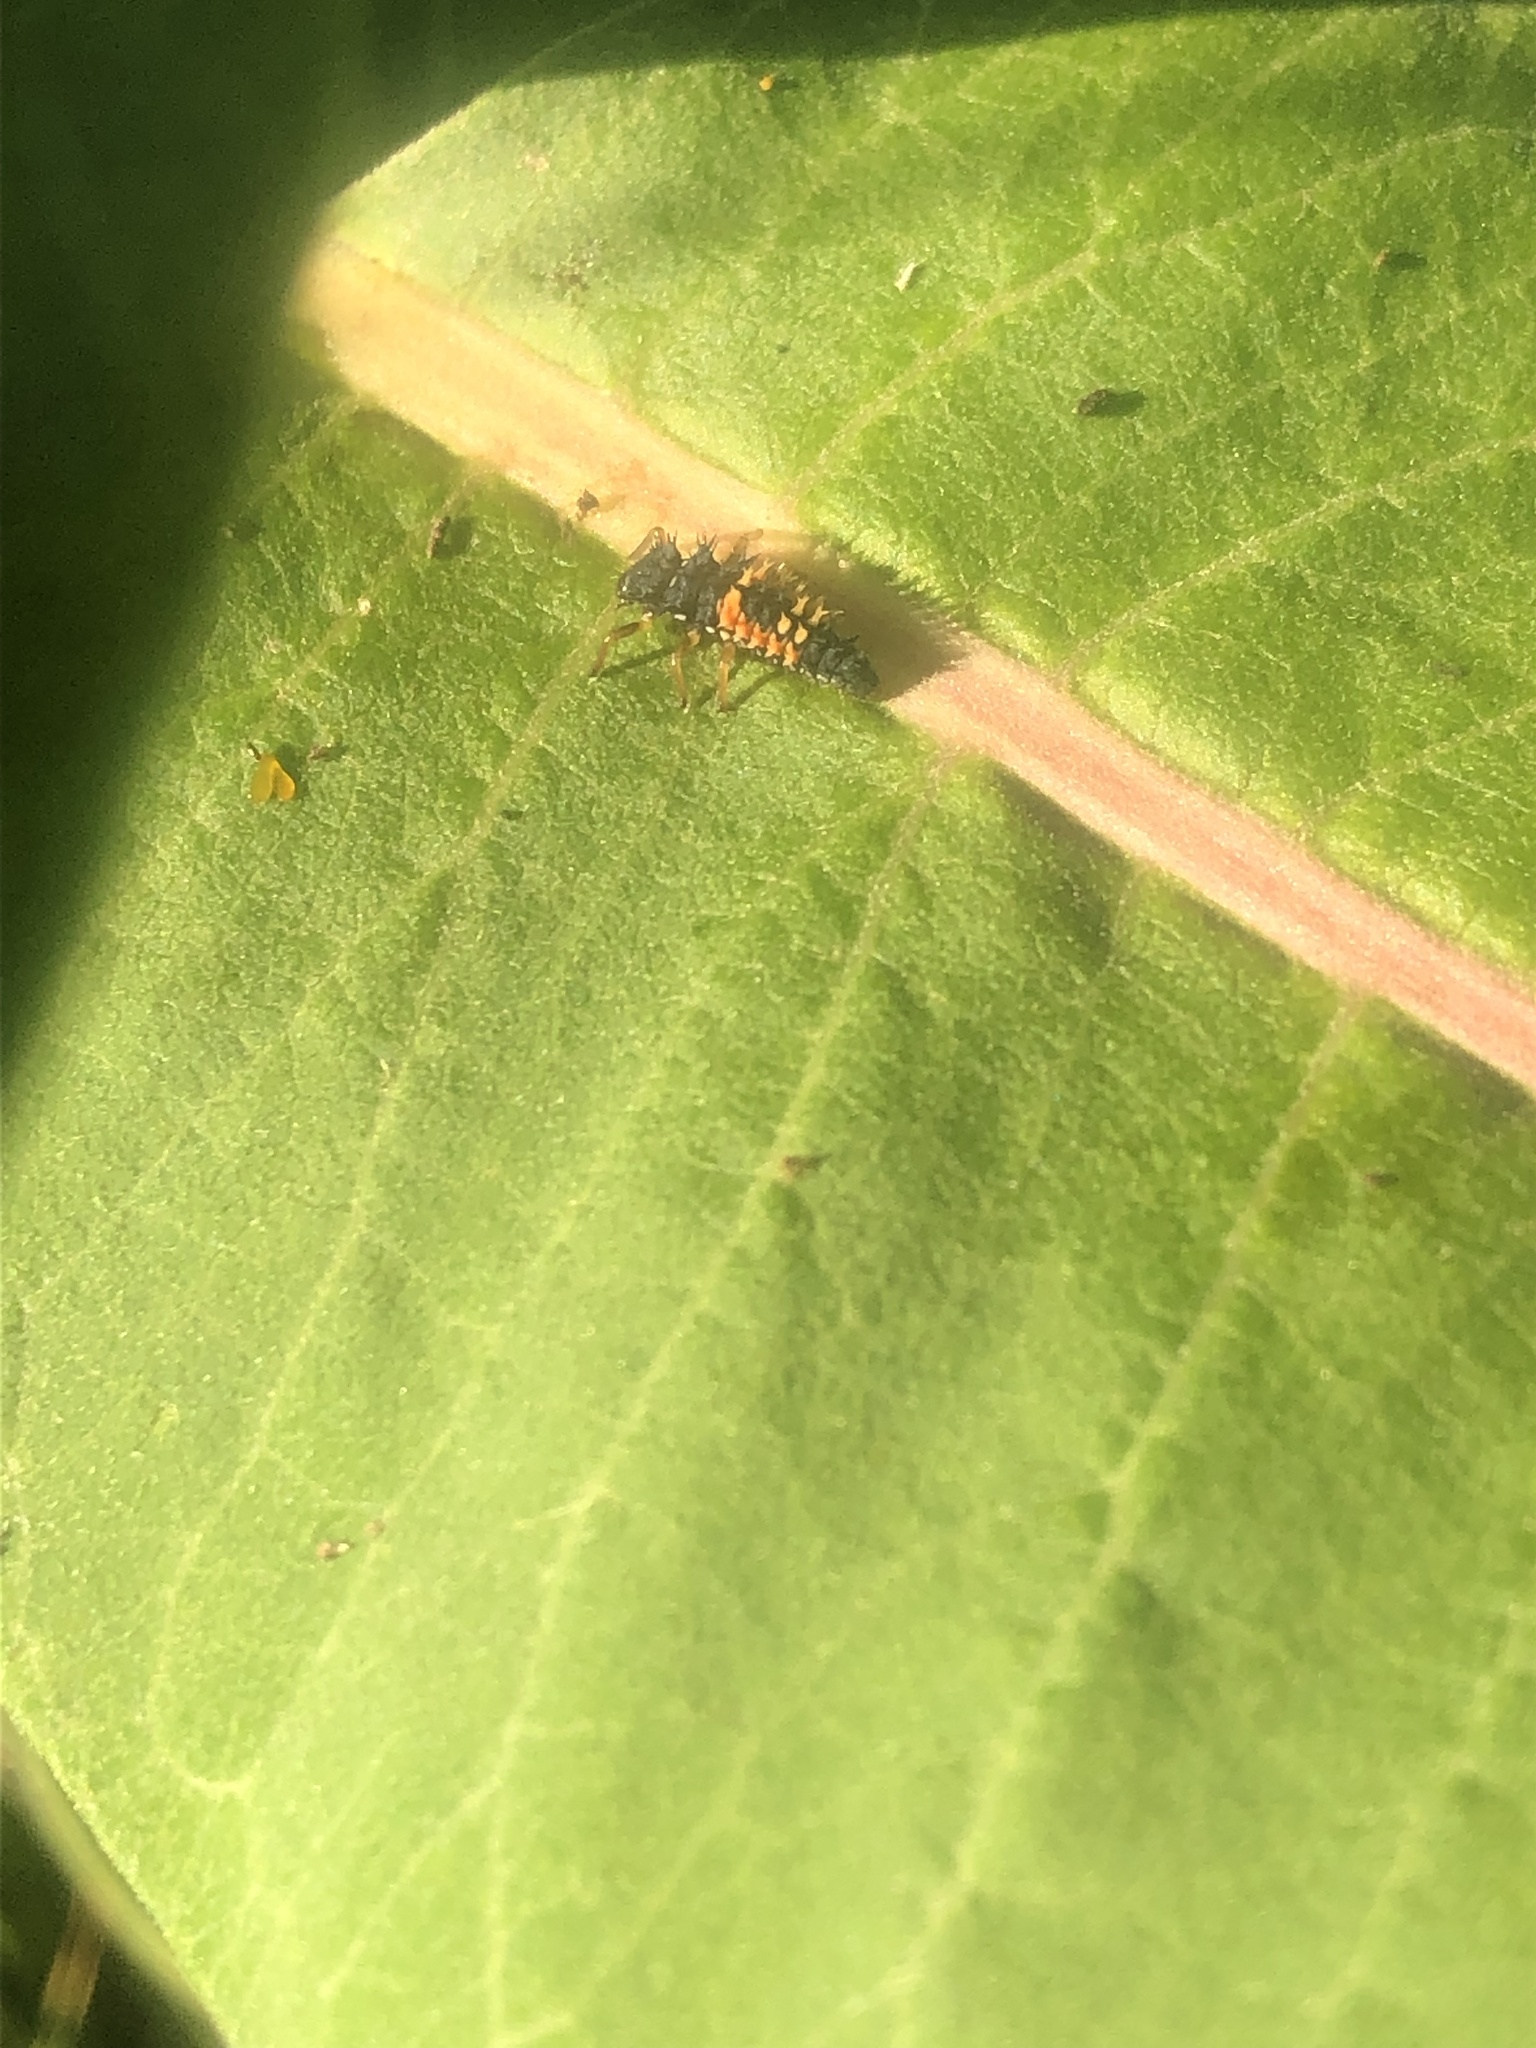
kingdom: Animalia
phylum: Arthropoda
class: Insecta
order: Coleoptera
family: Coccinellidae
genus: Harmonia
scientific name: Harmonia axyridis
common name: Harlequin ladybird
